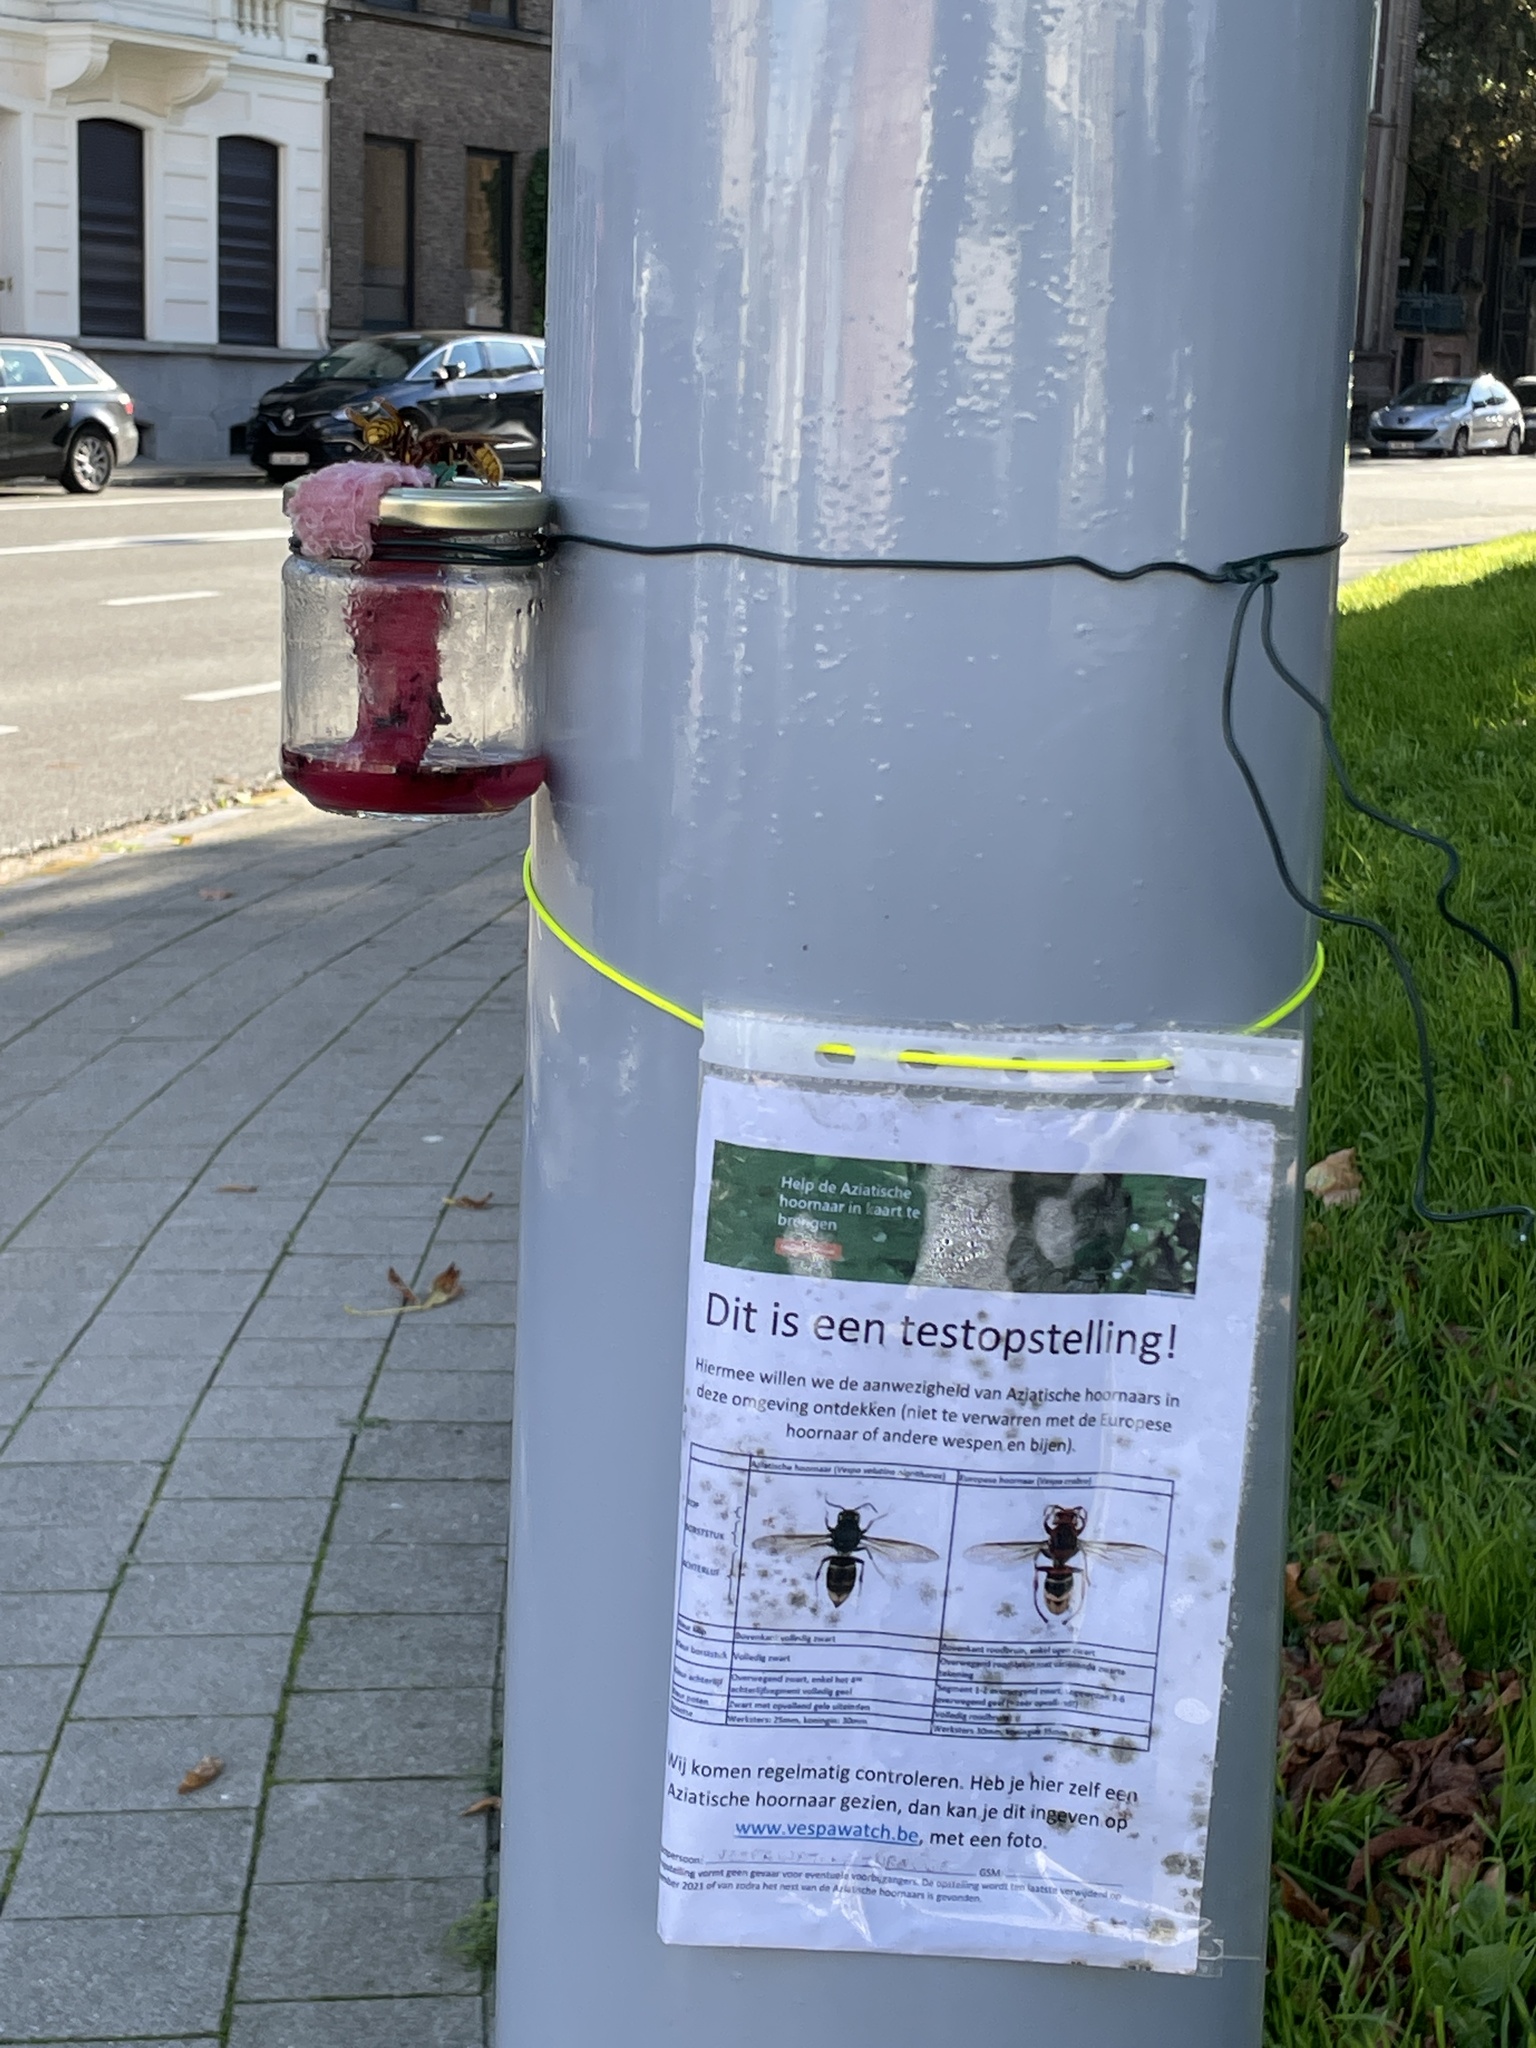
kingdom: Animalia
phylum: Arthropoda
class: Insecta
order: Hymenoptera
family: Vespidae
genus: Vespa
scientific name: Vespa crabro
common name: Hornet
